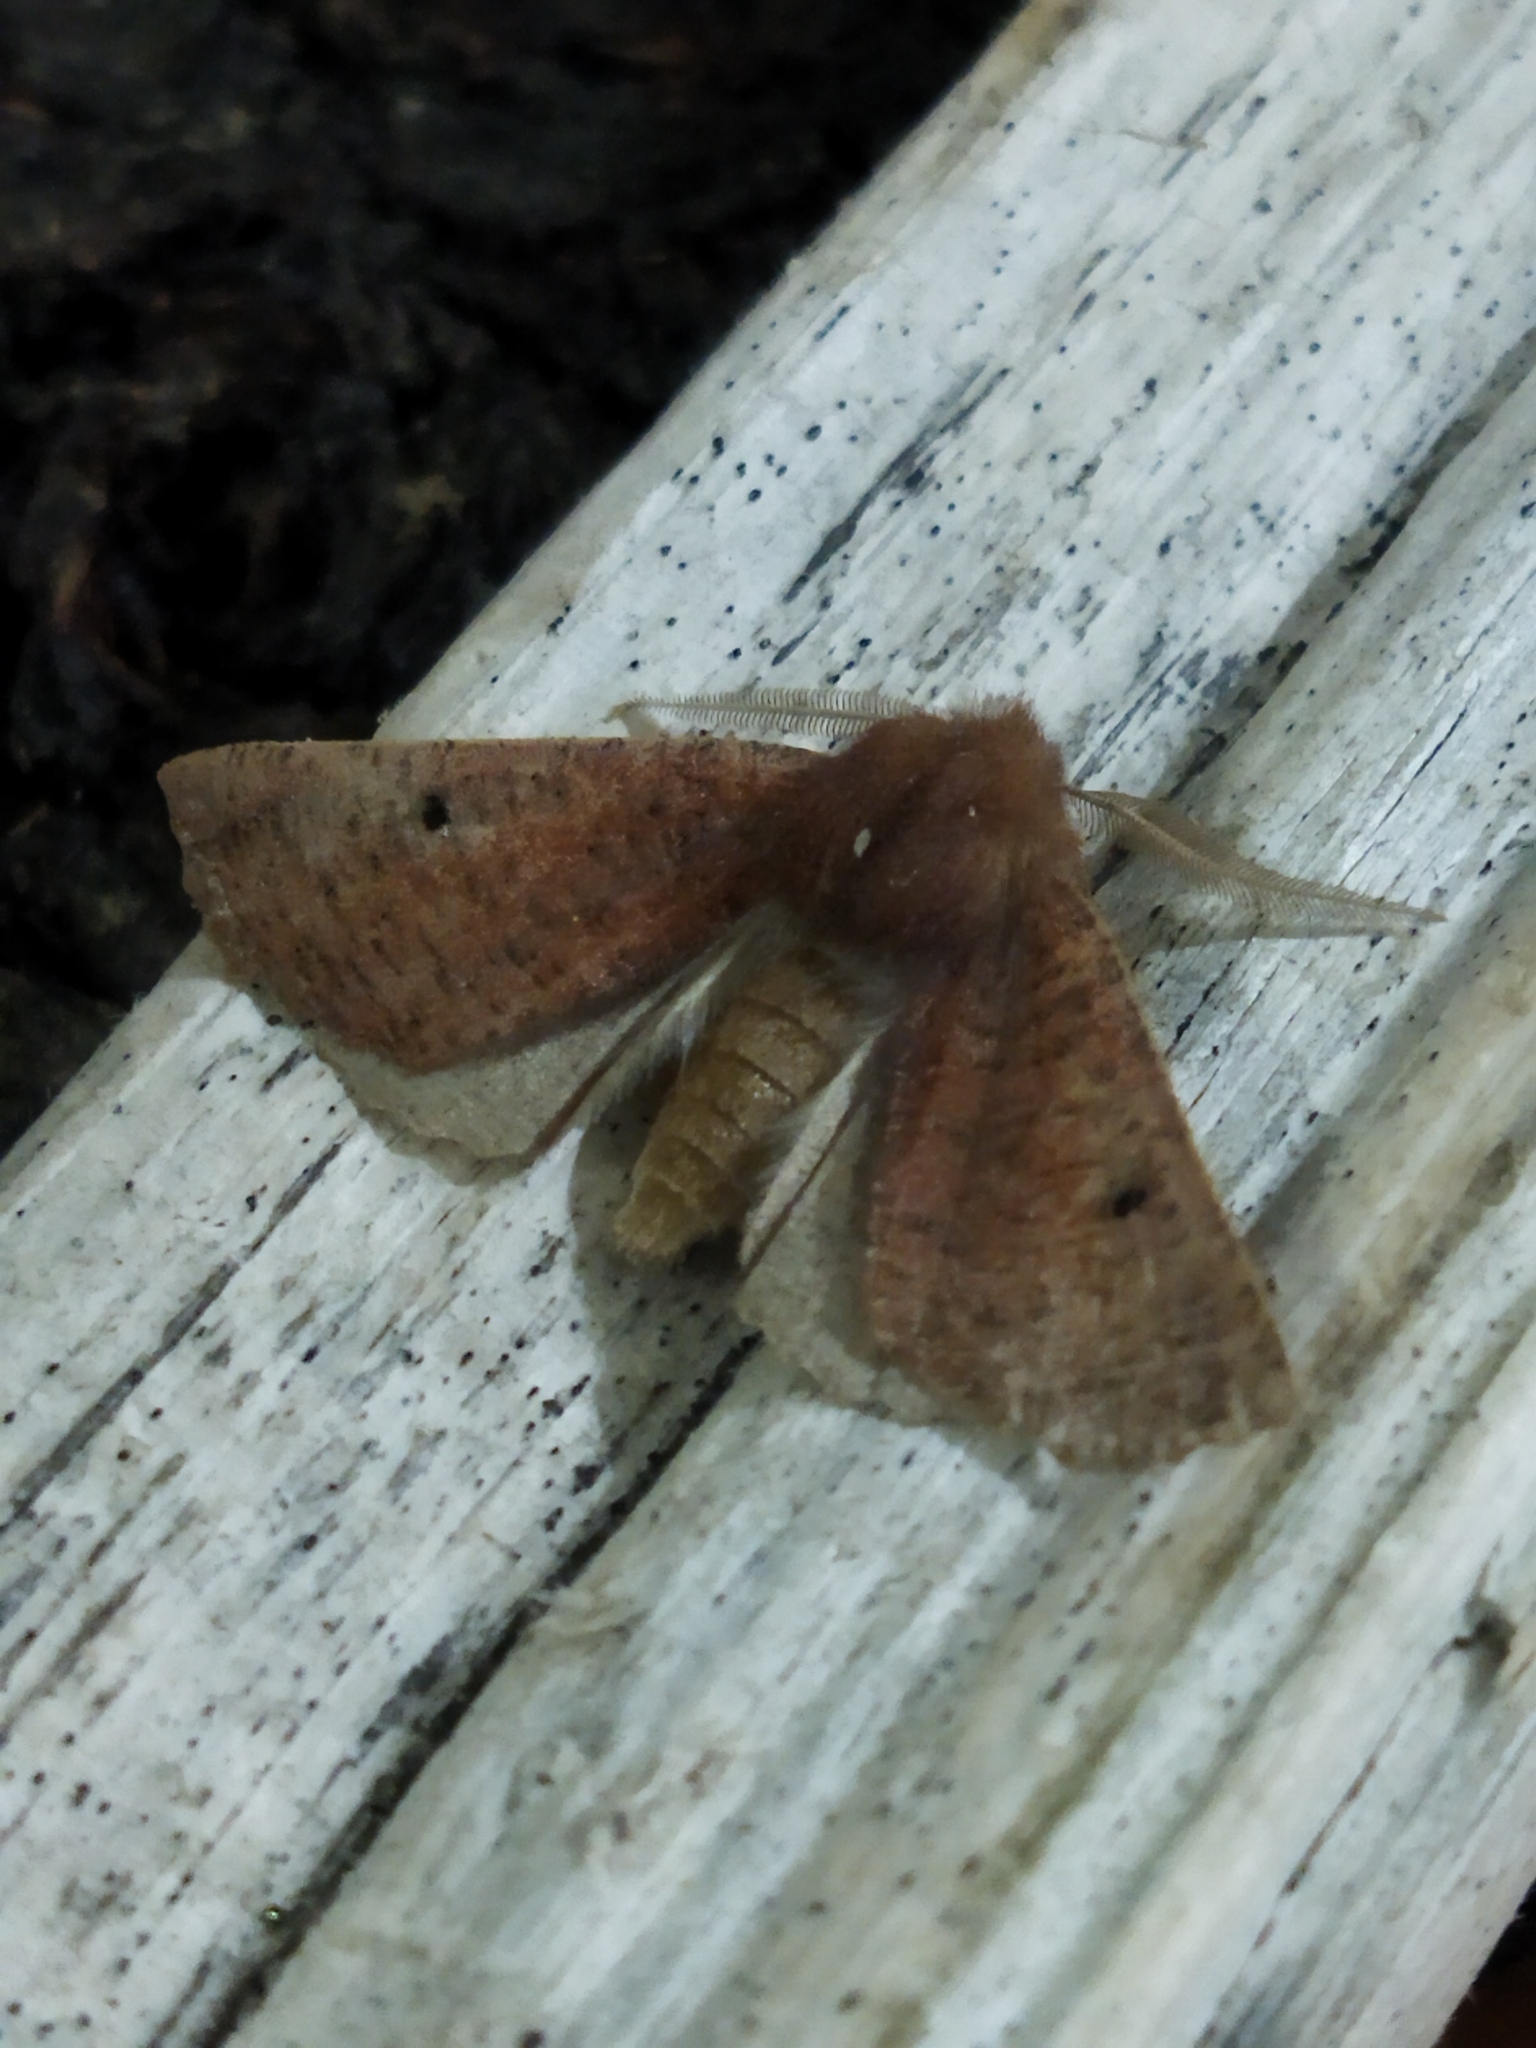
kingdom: Animalia
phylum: Arthropoda
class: Insecta
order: Lepidoptera
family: Geometridae
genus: Dasycorsa
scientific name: Dasycorsa modesta
